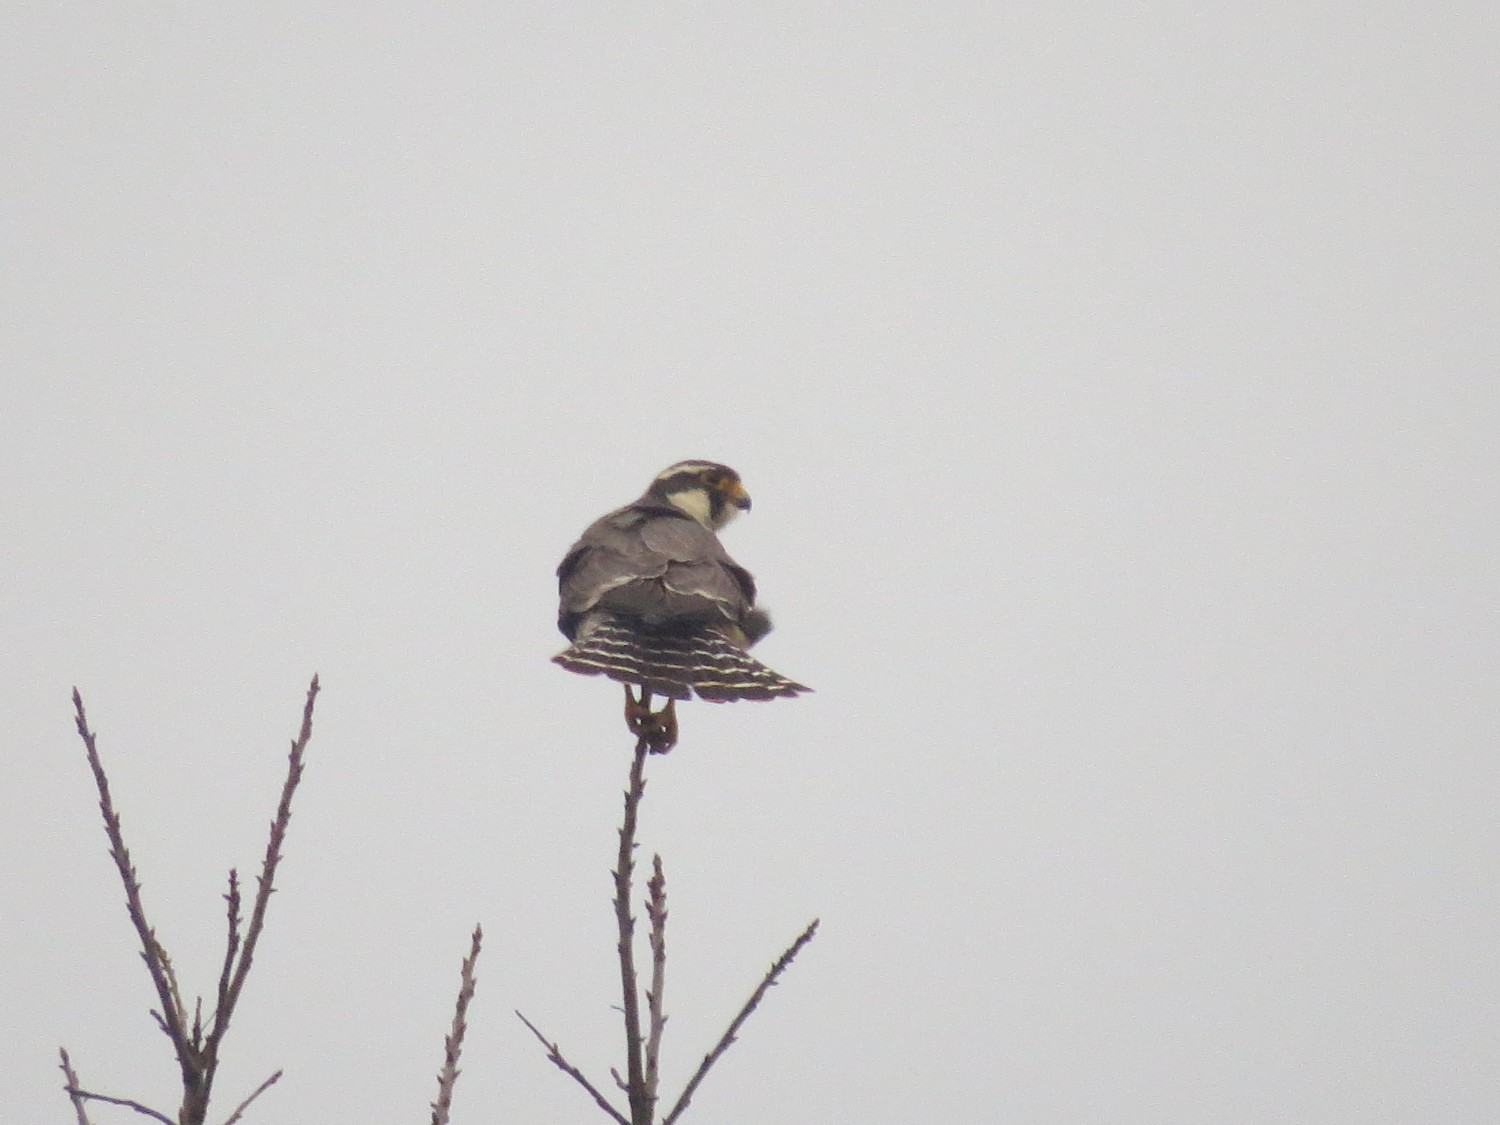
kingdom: Animalia
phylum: Chordata
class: Aves
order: Falconiformes
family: Falconidae
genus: Falco
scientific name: Falco femoralis
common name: Aplomado falcon
